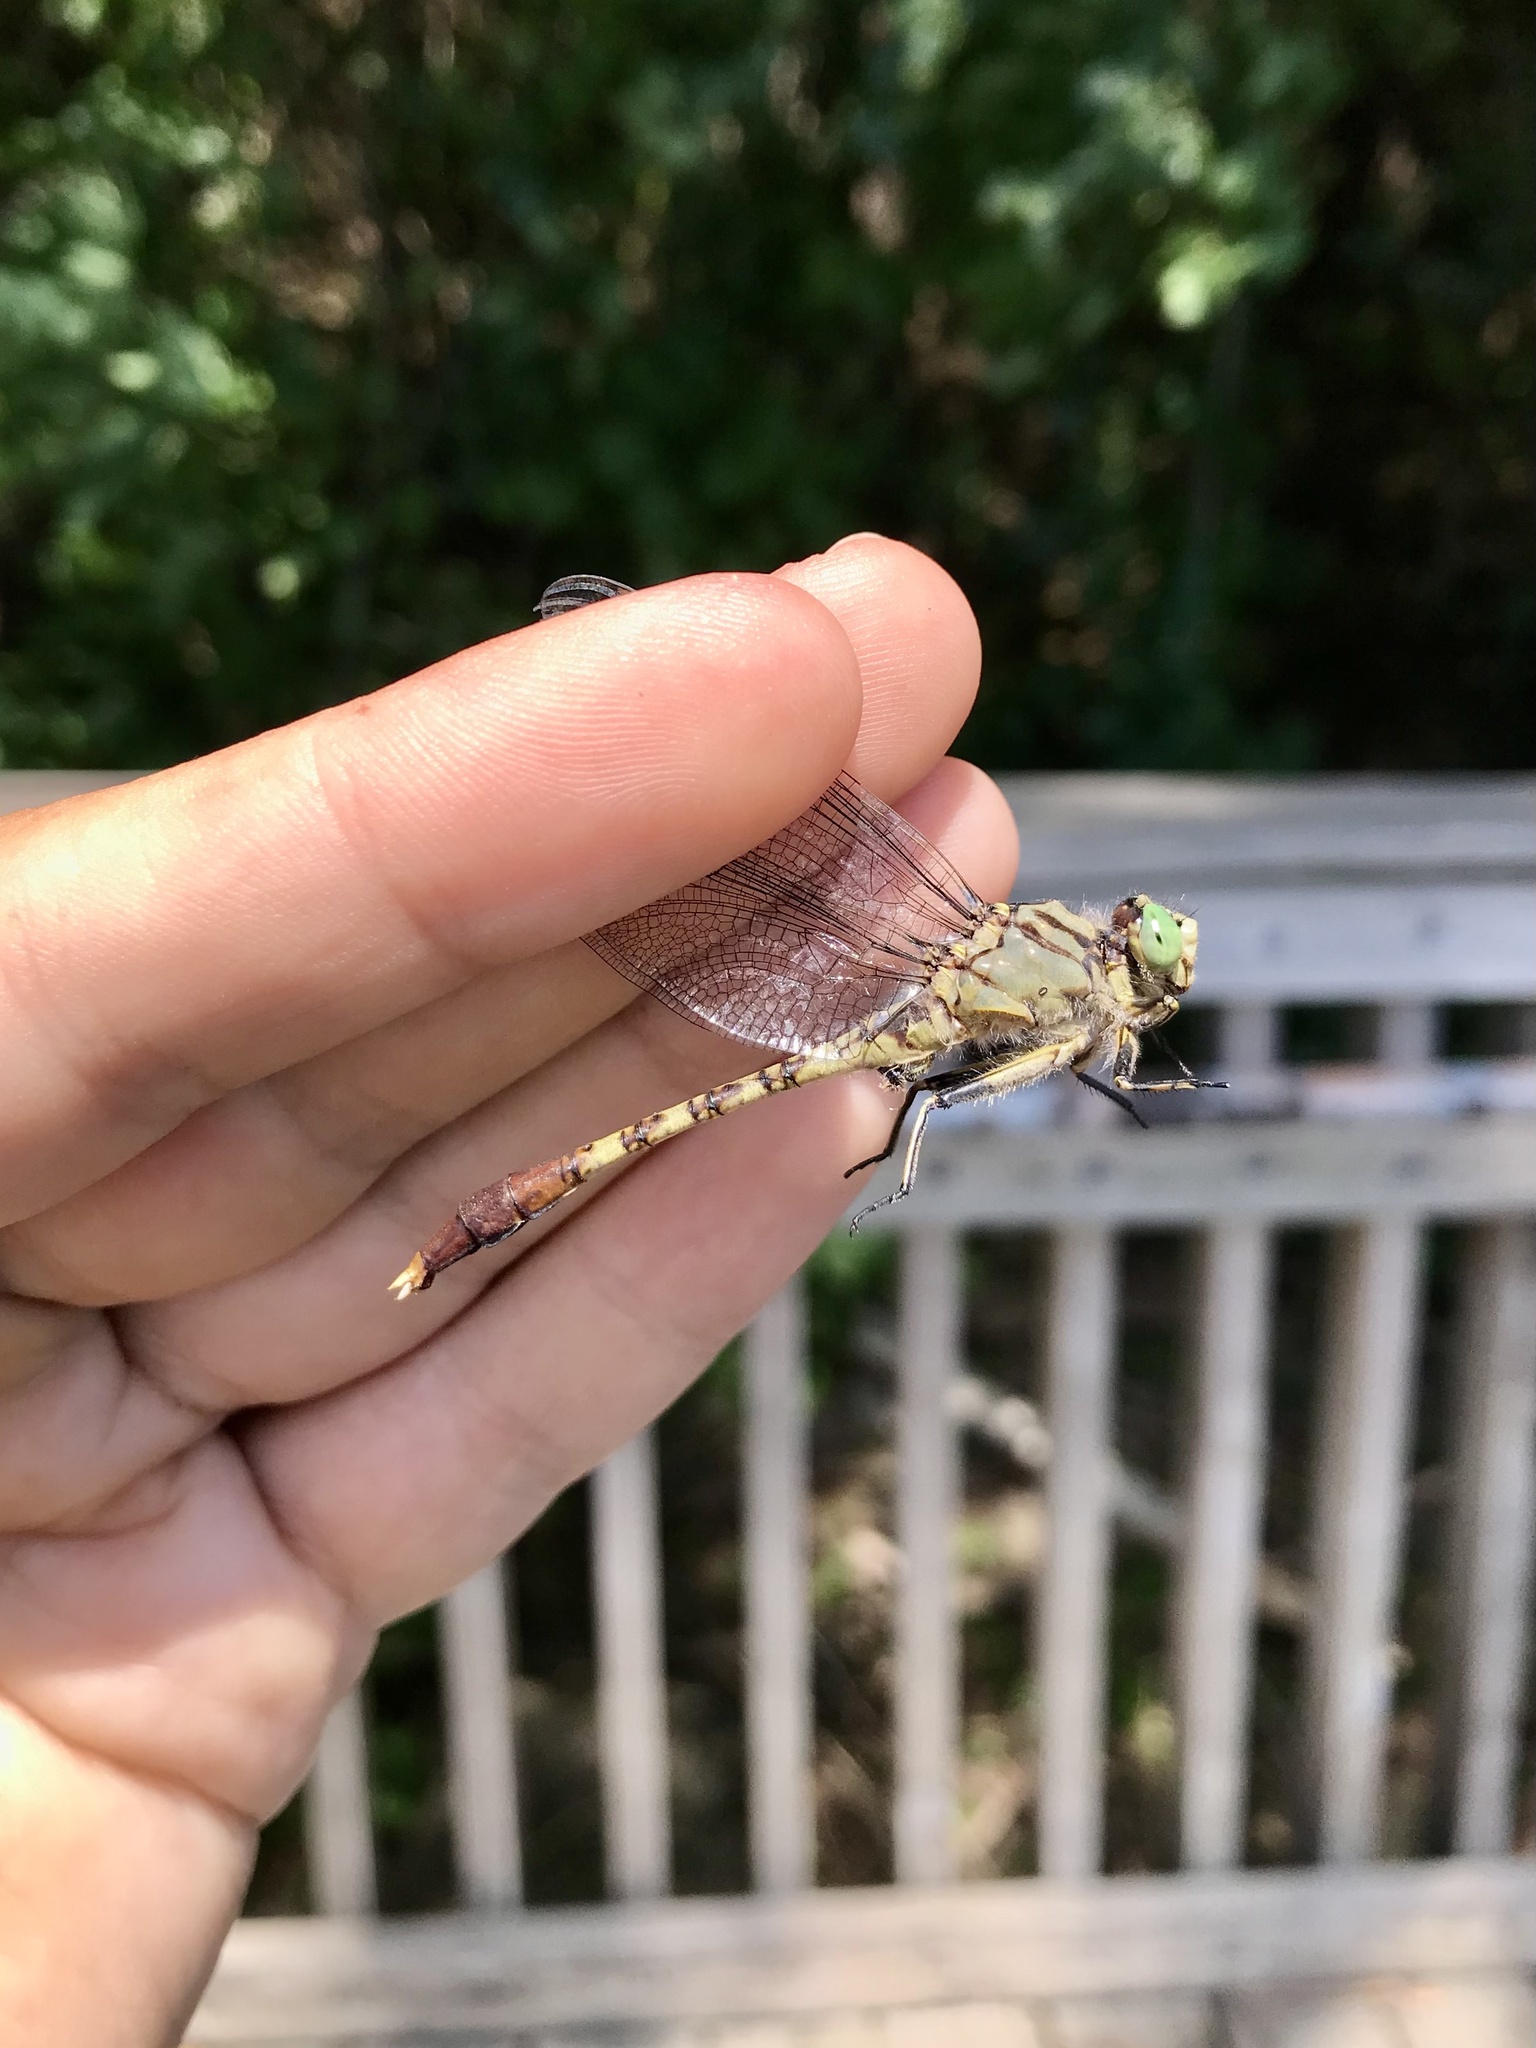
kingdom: Animalia
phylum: Arthropoda
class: Insecta
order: Odonata
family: Gomphidae
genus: Arigomphus
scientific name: Arigomphus submedianus
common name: Jade clubtail
